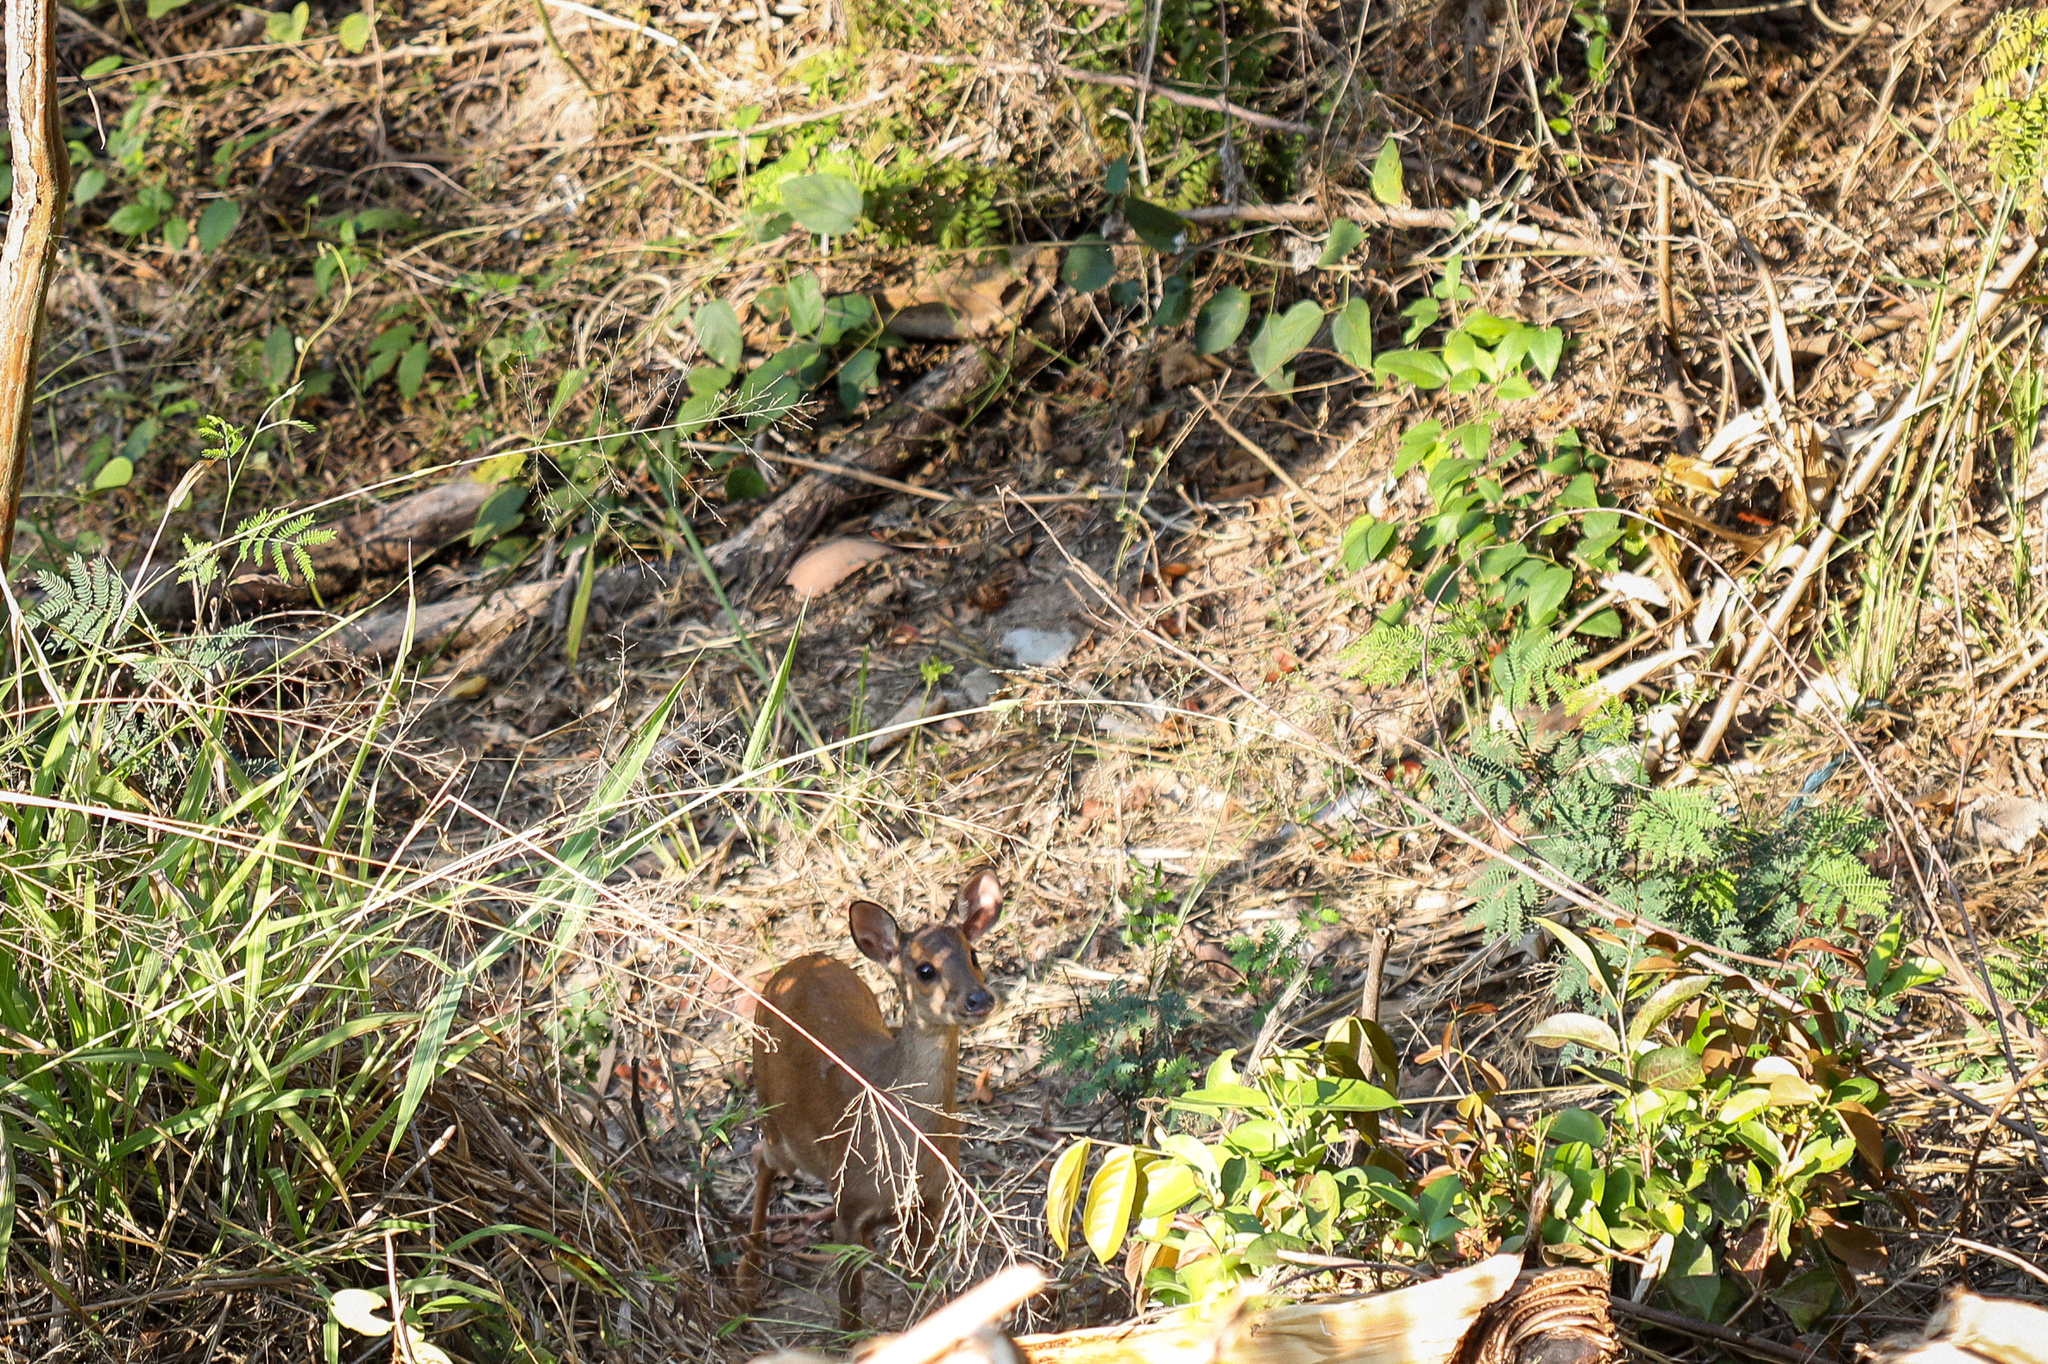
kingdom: Animalia
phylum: Chordata
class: Mammalia
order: Artiodactyla
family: Cervidae
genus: Mazama
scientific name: Mazama gouazoubira
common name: Gray brocket
